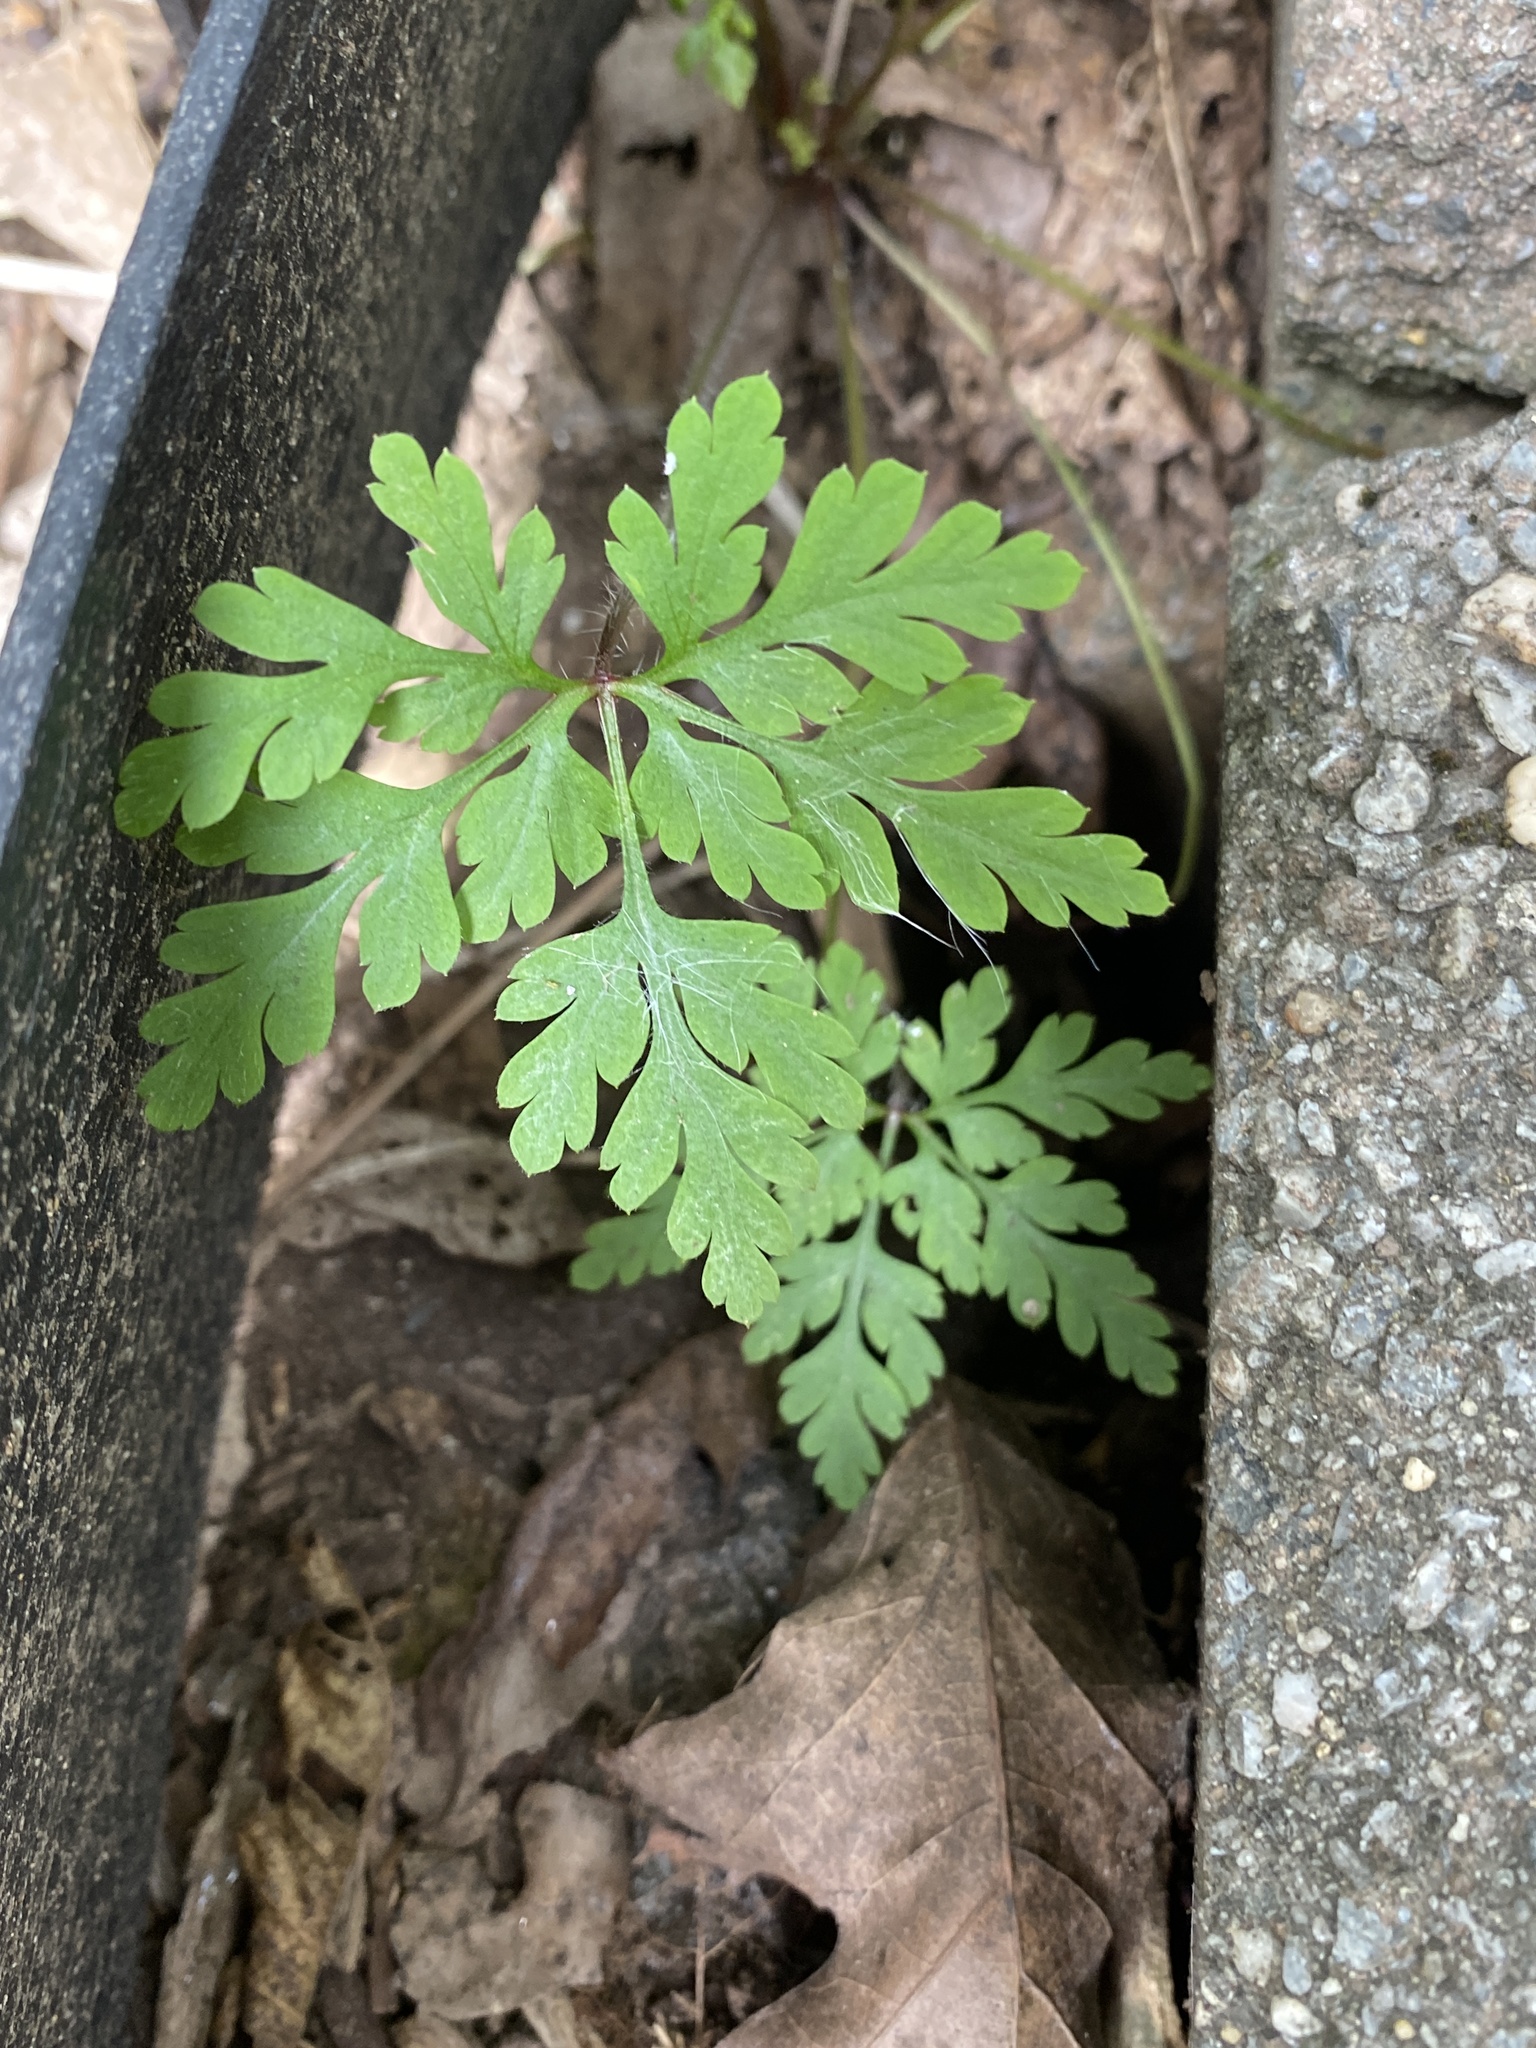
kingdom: Plantae
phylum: Tracheophyta
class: Magnoliopsida
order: Geraniales
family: Geraniaceae
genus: Geranium
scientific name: Geranium robertianum
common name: Herb-robert
